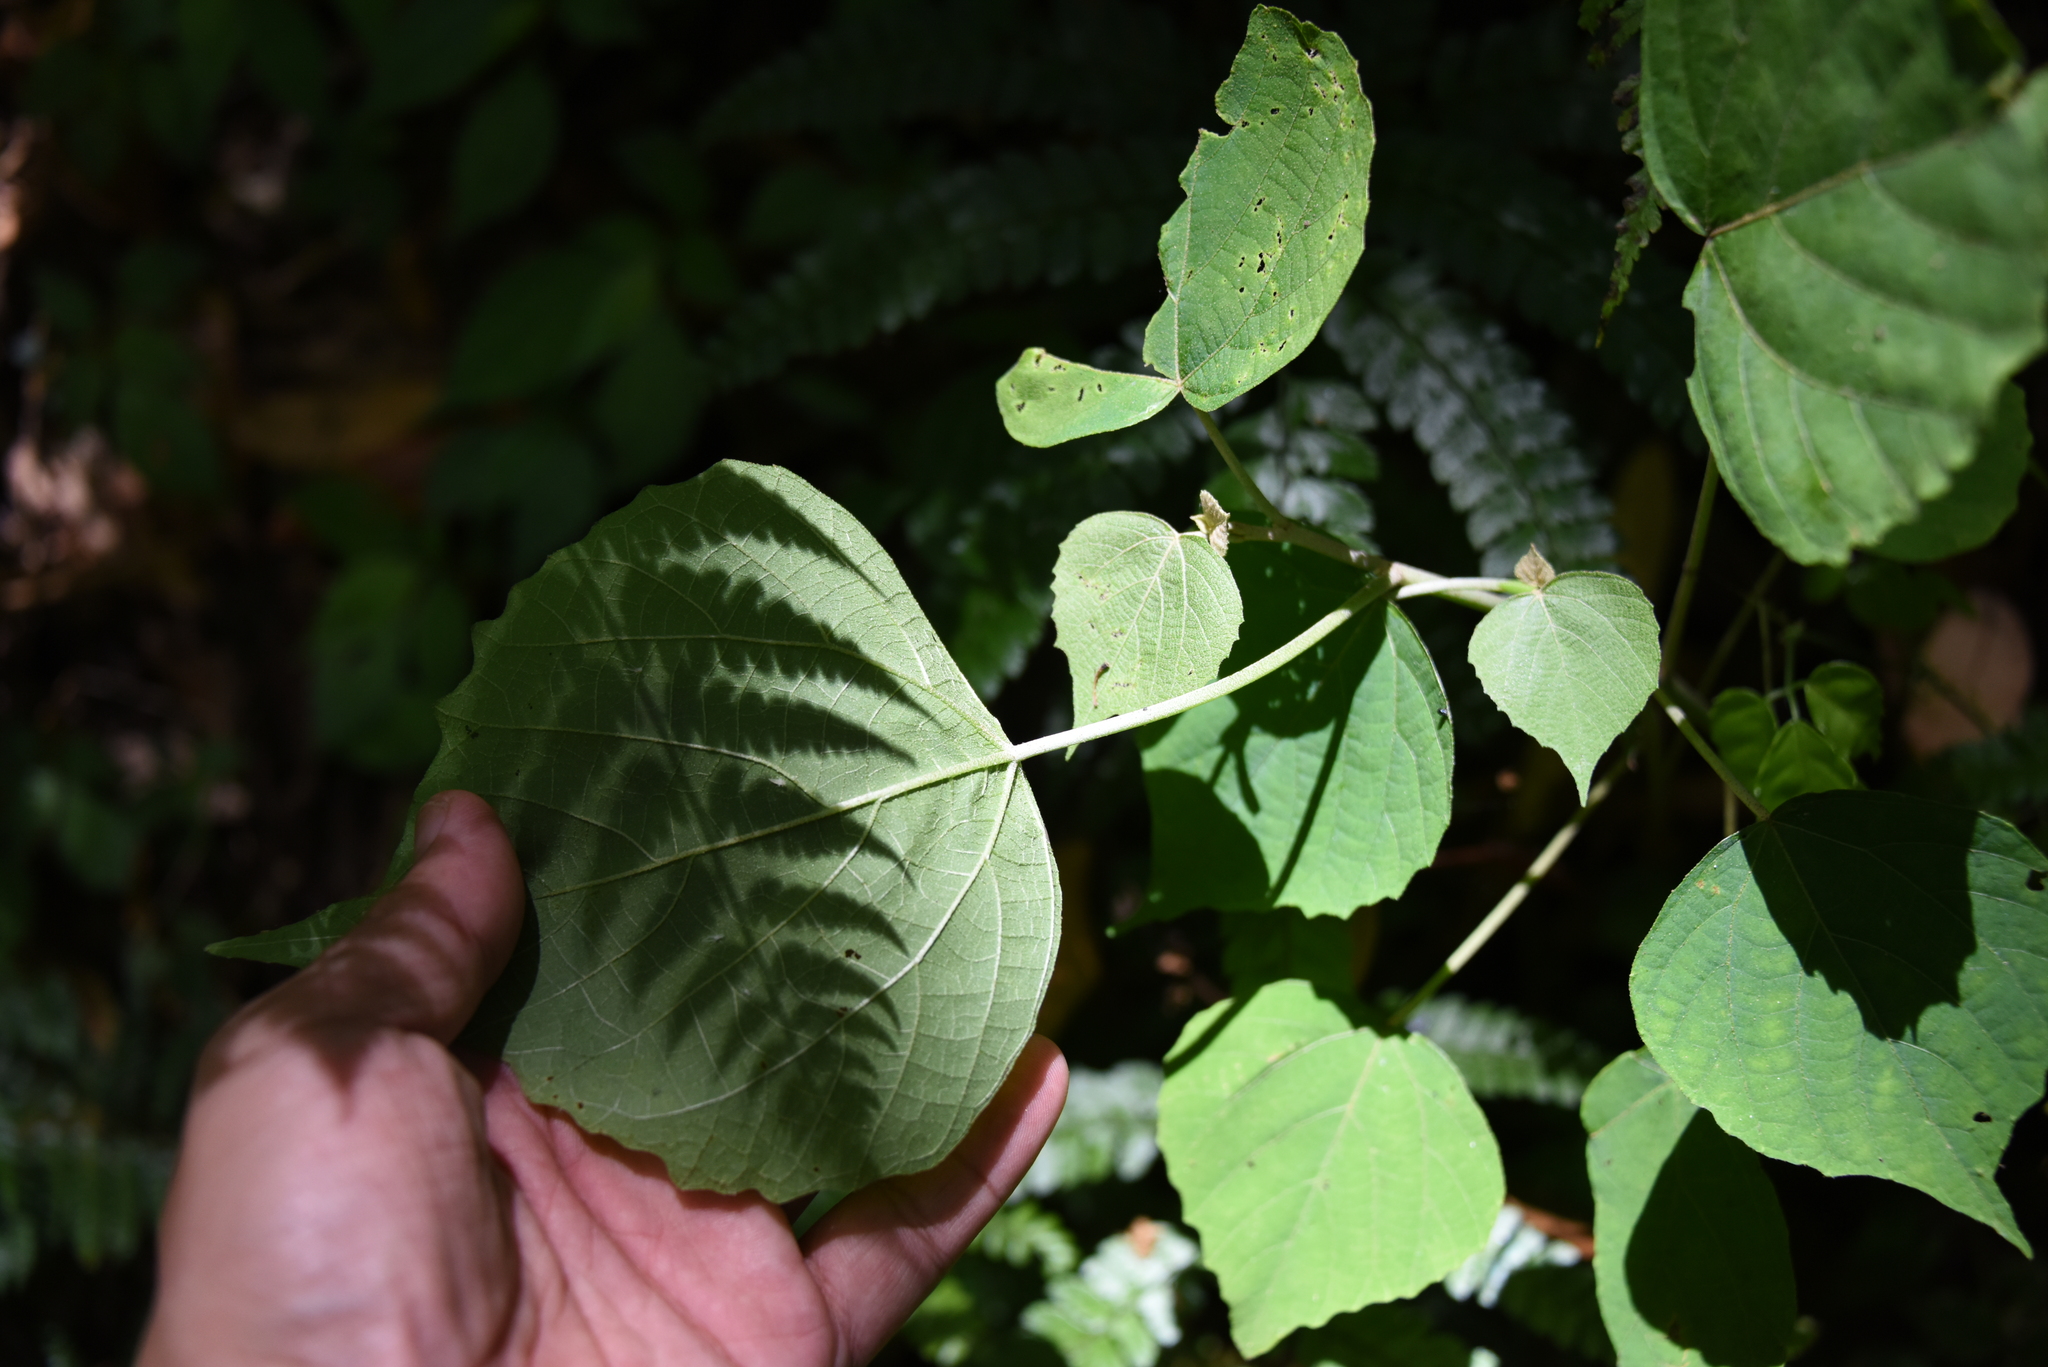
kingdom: Plantae
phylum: Tracheophyta
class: Magnoliopsida
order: Malpighiales
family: Euphorbiaceae
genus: Mallotus
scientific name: Mallotus japonicus
